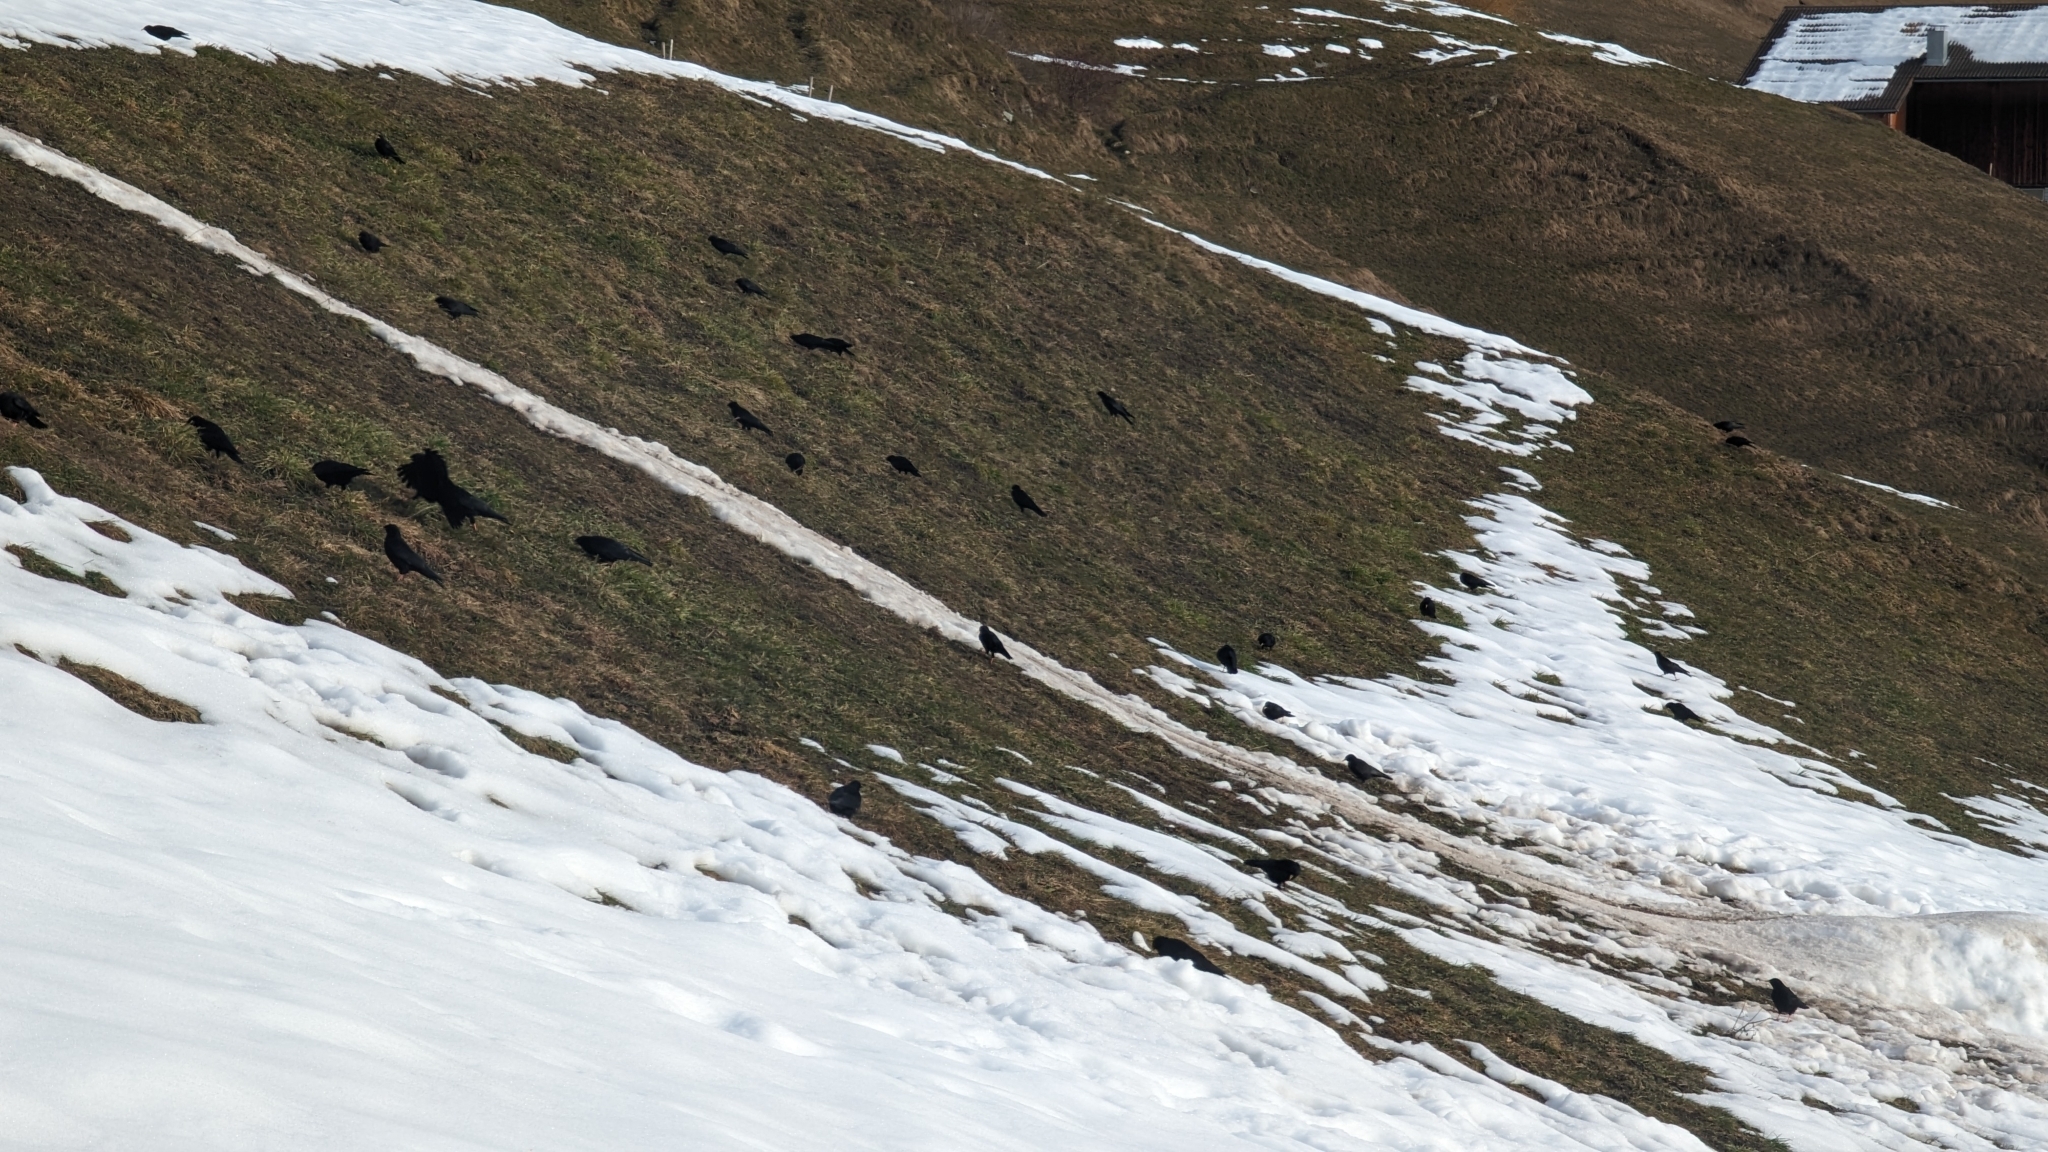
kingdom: Animalia
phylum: Chordata
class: Aves
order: Passeriformes
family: Corvidae
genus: Pyrrhocorax
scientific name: Pyrrhocorax graculus
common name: Alpine chough
